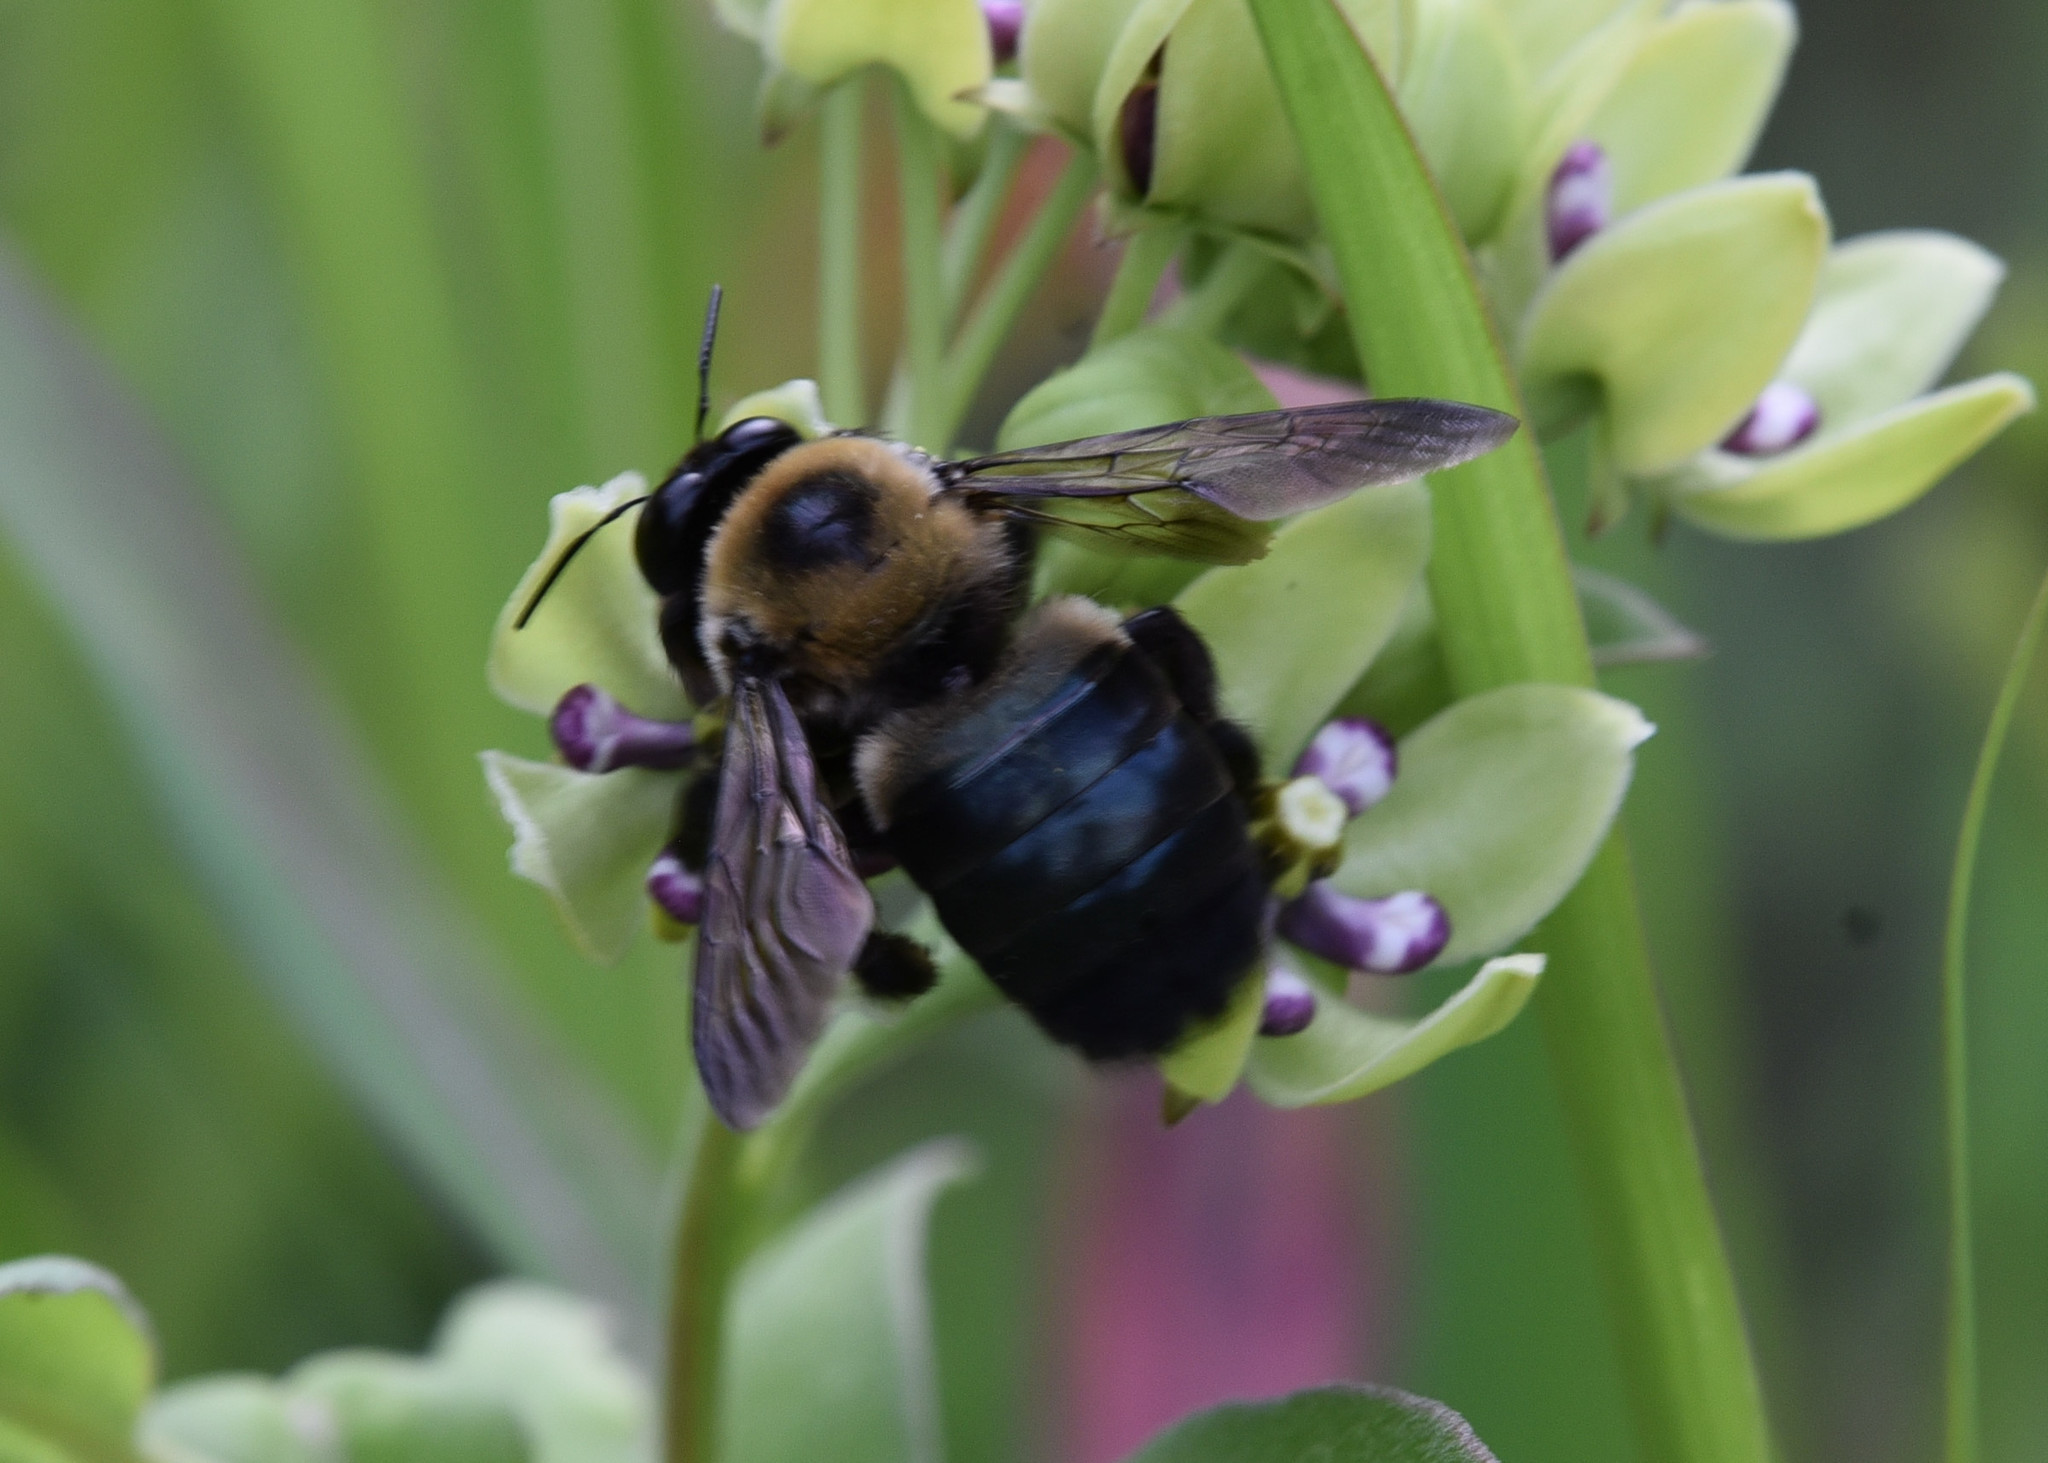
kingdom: Animalia
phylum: Arthropoda
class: Insecta
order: Hymenoptera
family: Apidae
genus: Xylocopa
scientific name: Xylocopa virginica
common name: Carpenter bee
